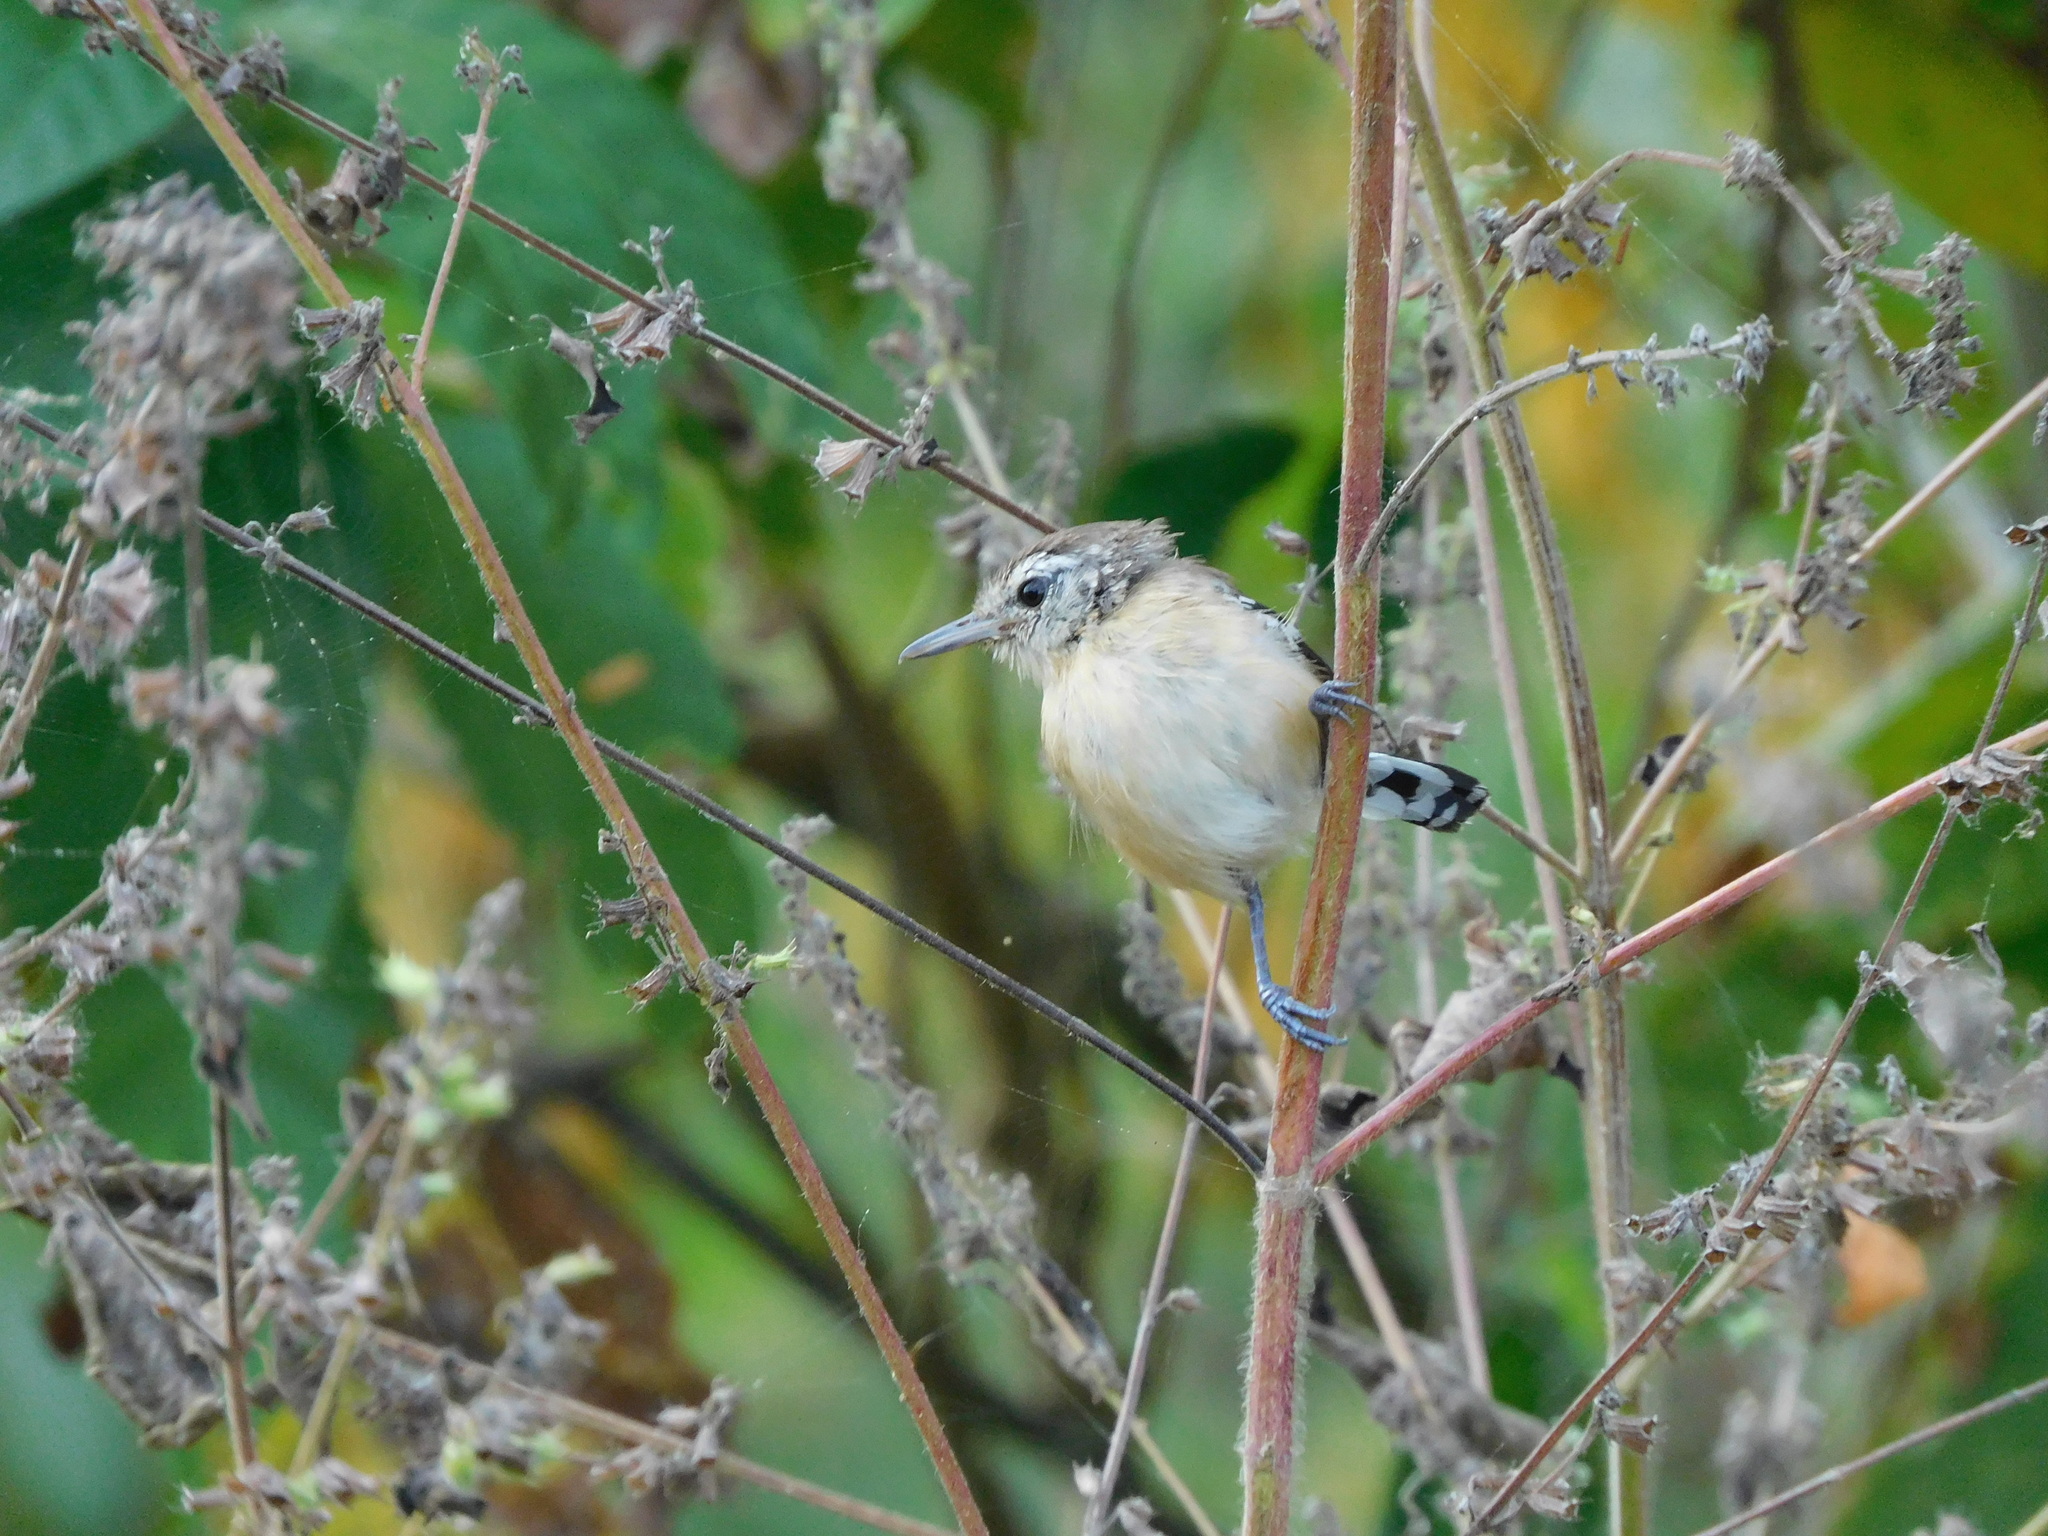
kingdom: Animalia
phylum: Chordata
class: Aves
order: Passeriformes
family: Thamnophilidae
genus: Formicivora
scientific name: Formicivora intermedia
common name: Northern white-fringed antwren
